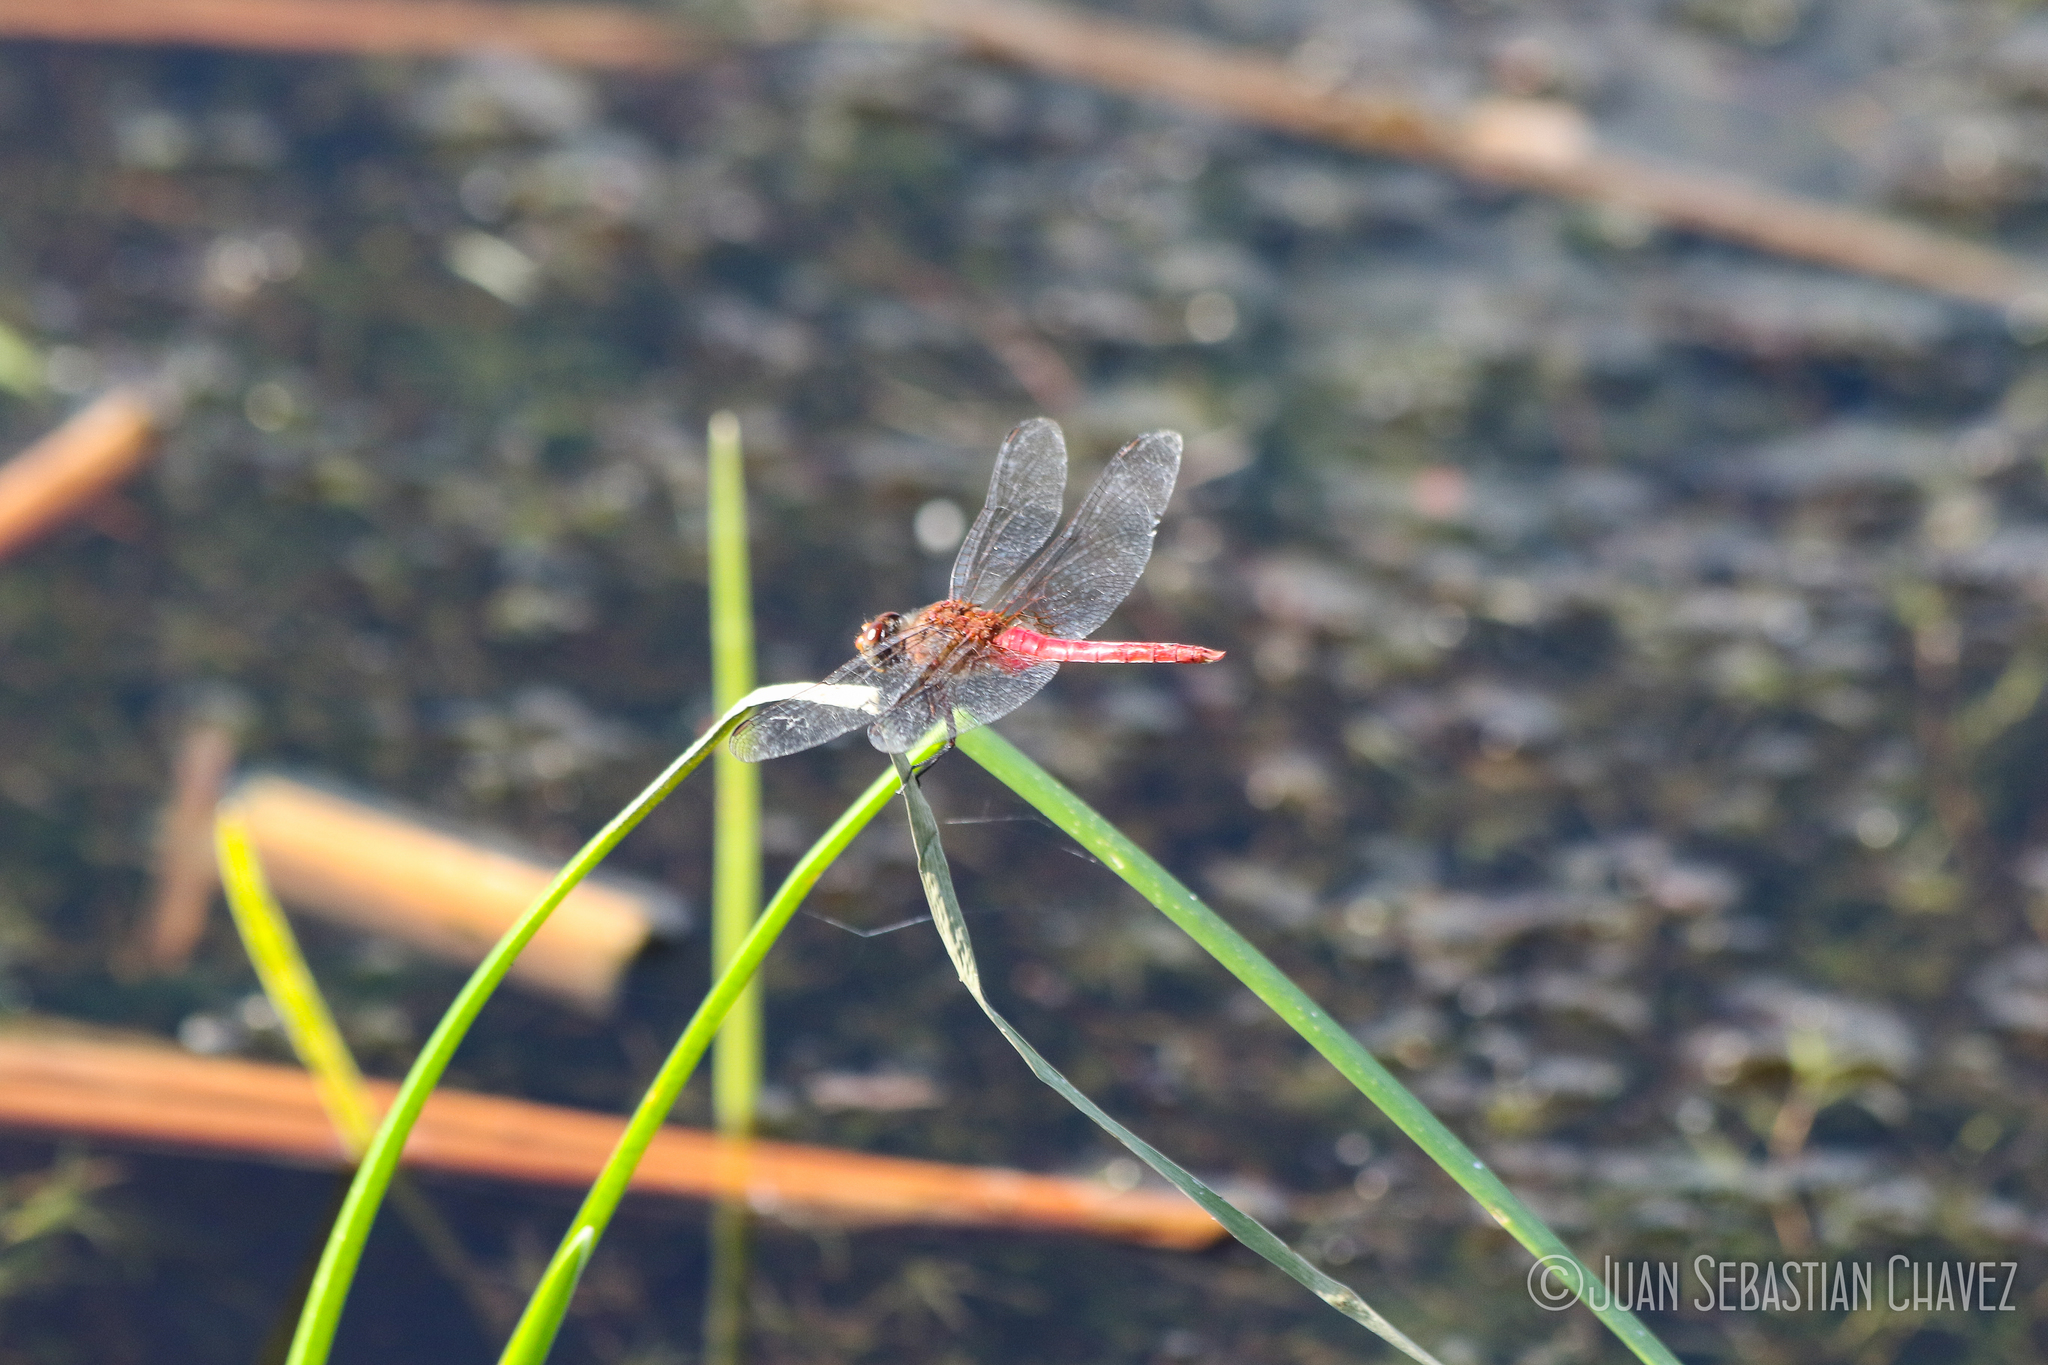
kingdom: Animalia
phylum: Arthropoda
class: Insecta
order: Odonata
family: Libellulidae
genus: Brachymesia
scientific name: Brachymesia furcata
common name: Red-taled pennant
